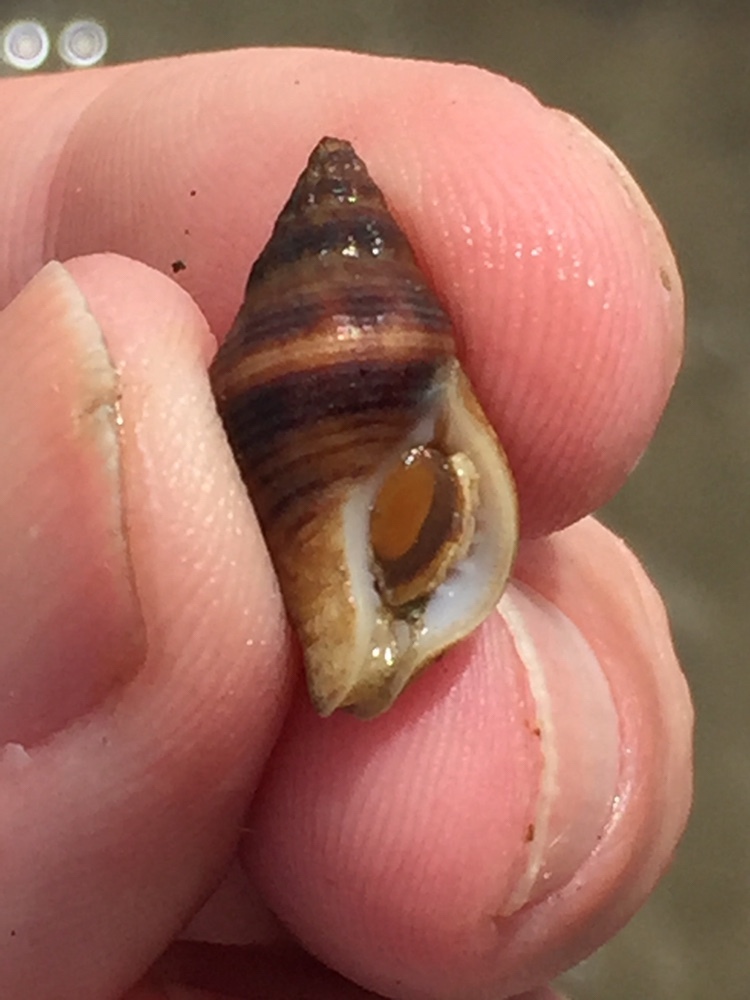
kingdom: Animalia
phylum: Mollusca
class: Gastropoda
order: Neogastropoda
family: Tudiclidae
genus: Buccinulum
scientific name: Buccinulum vittatum
